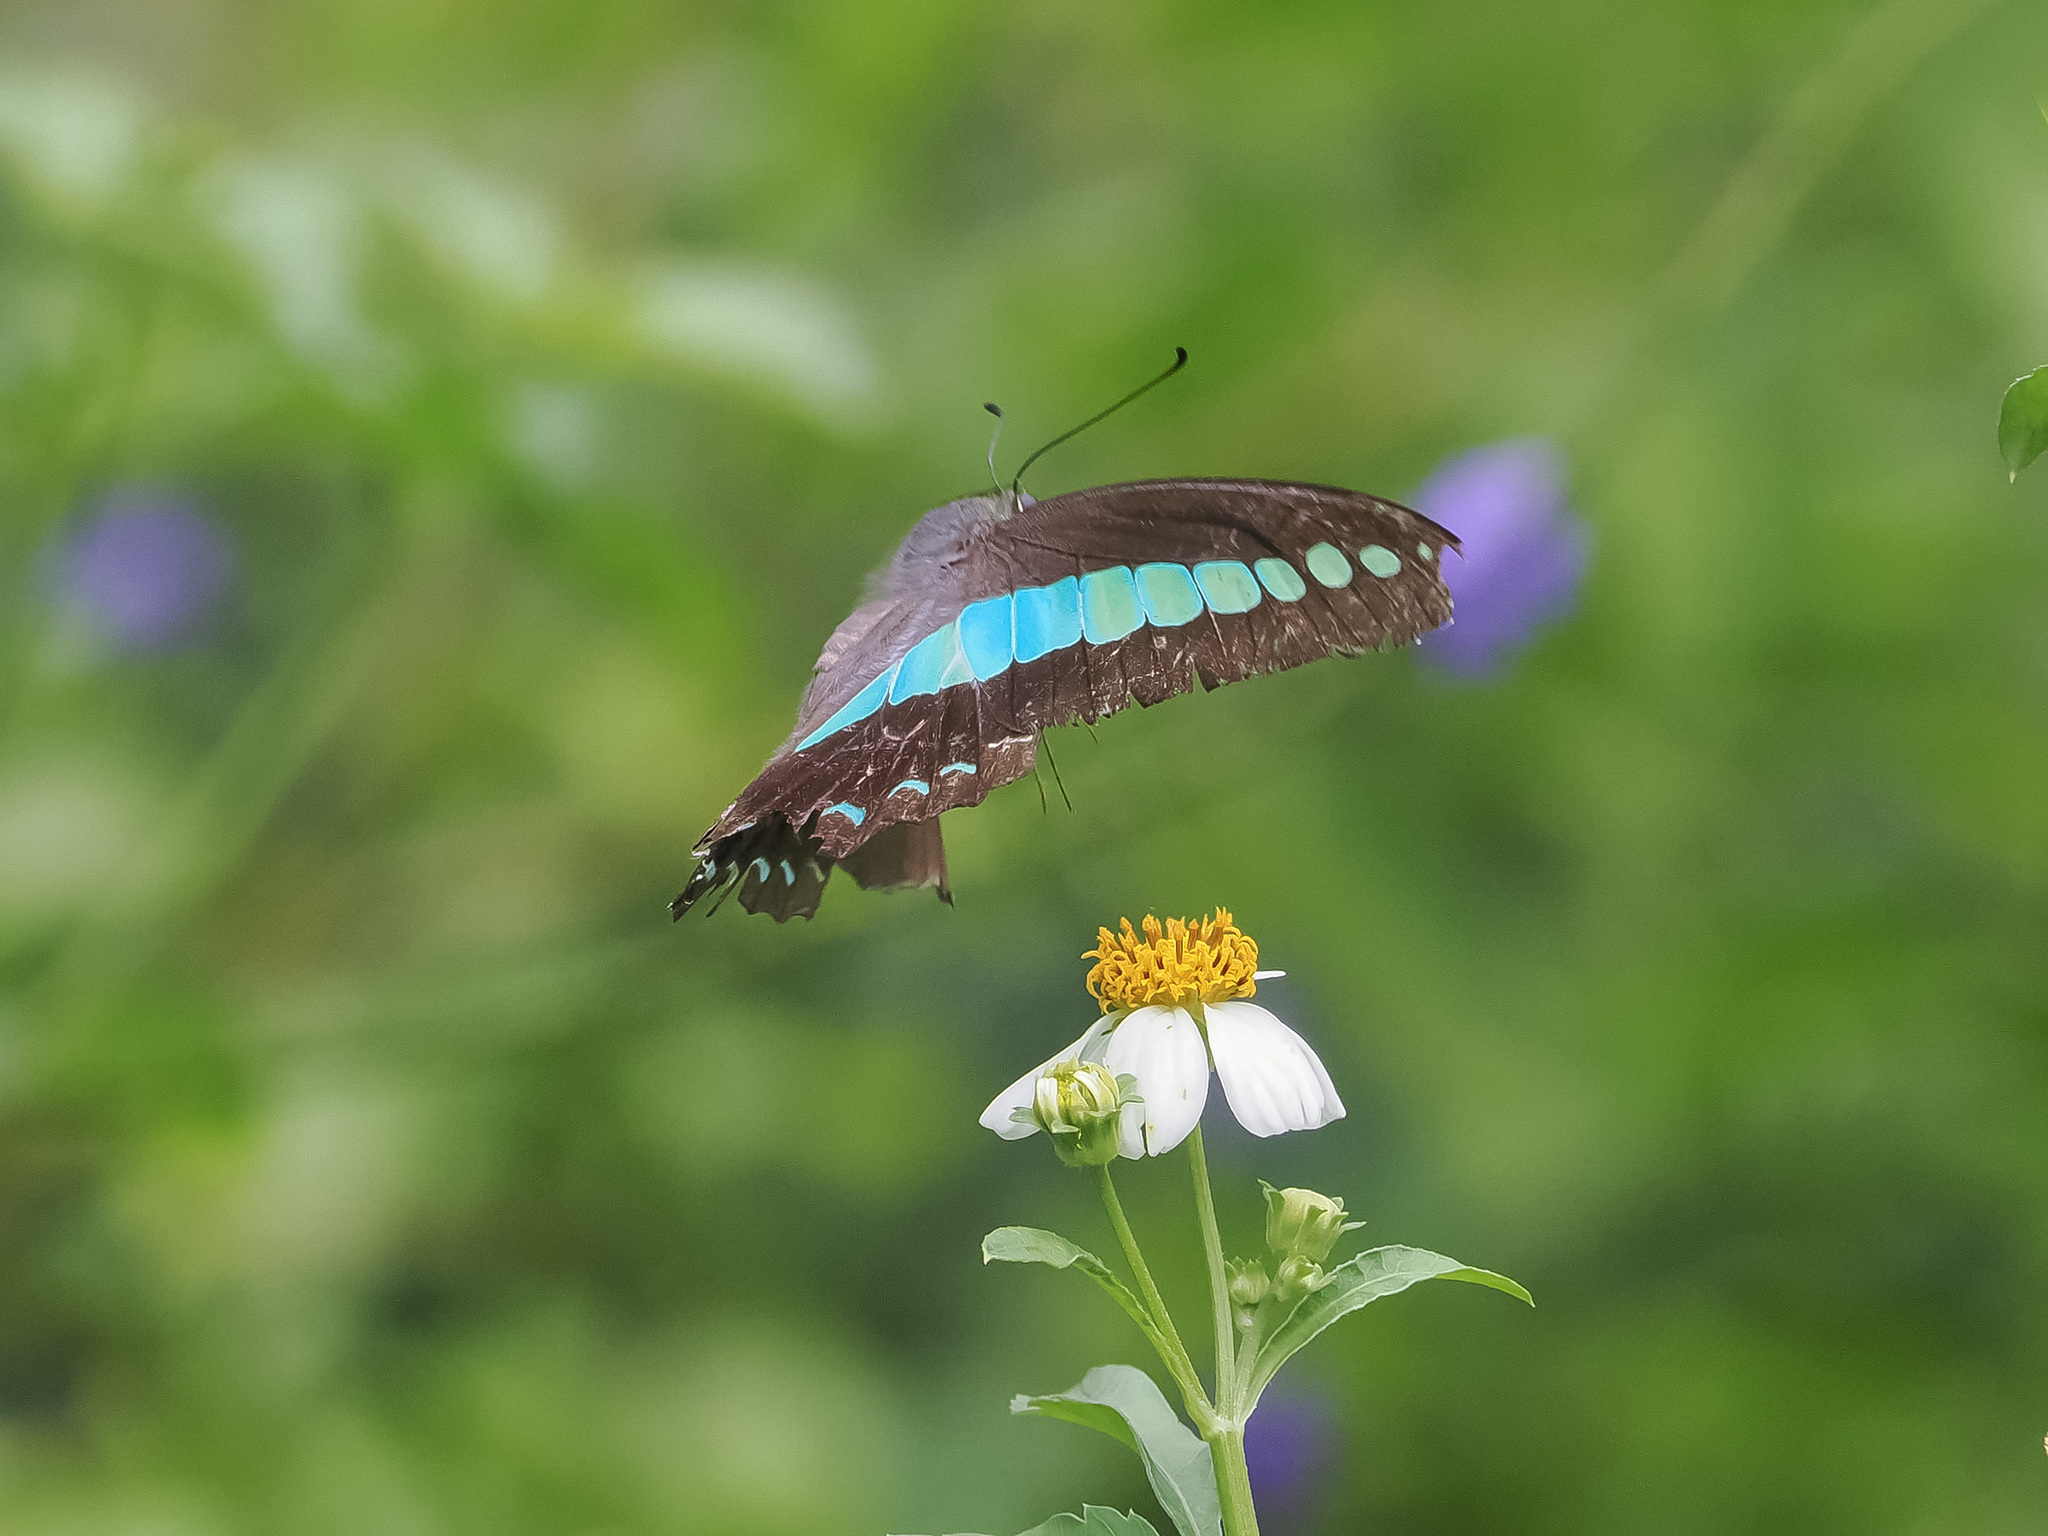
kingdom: Fungi
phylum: Ascomycota
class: Sordariomycetes
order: Microascales
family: Microascaceae
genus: Graphium
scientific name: Graphium sarpedon
